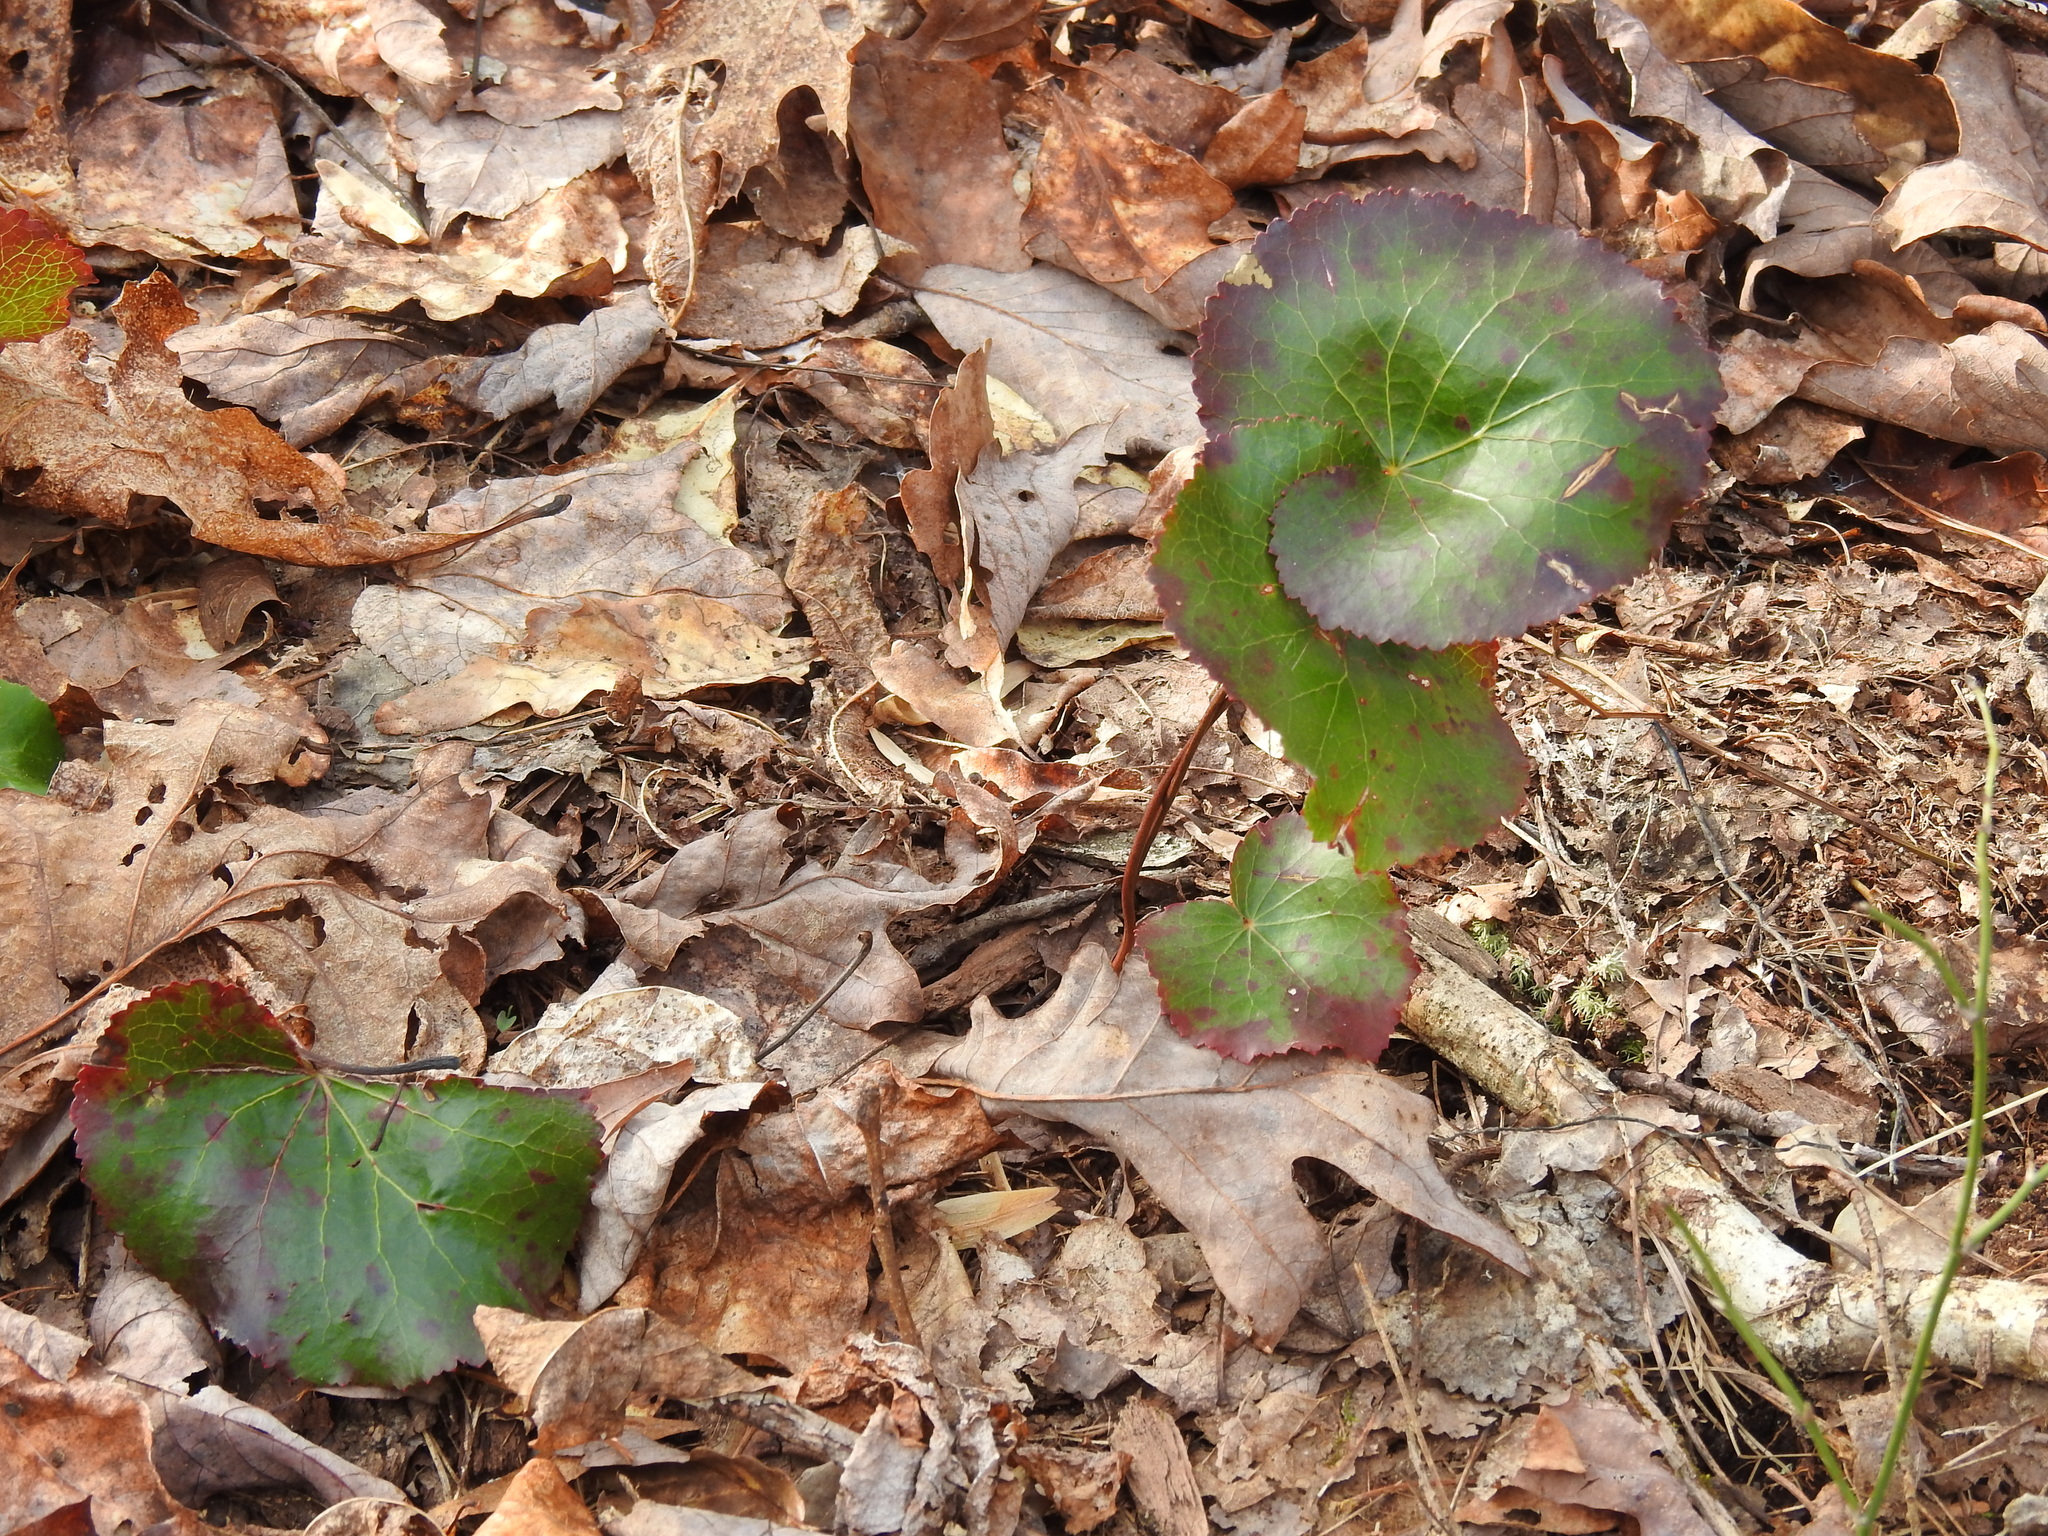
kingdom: Plantae
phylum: Tracheophyta
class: Magnoliopsida
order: Ericales
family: Diapensiaceae
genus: Galax
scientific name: Galax urceolata
